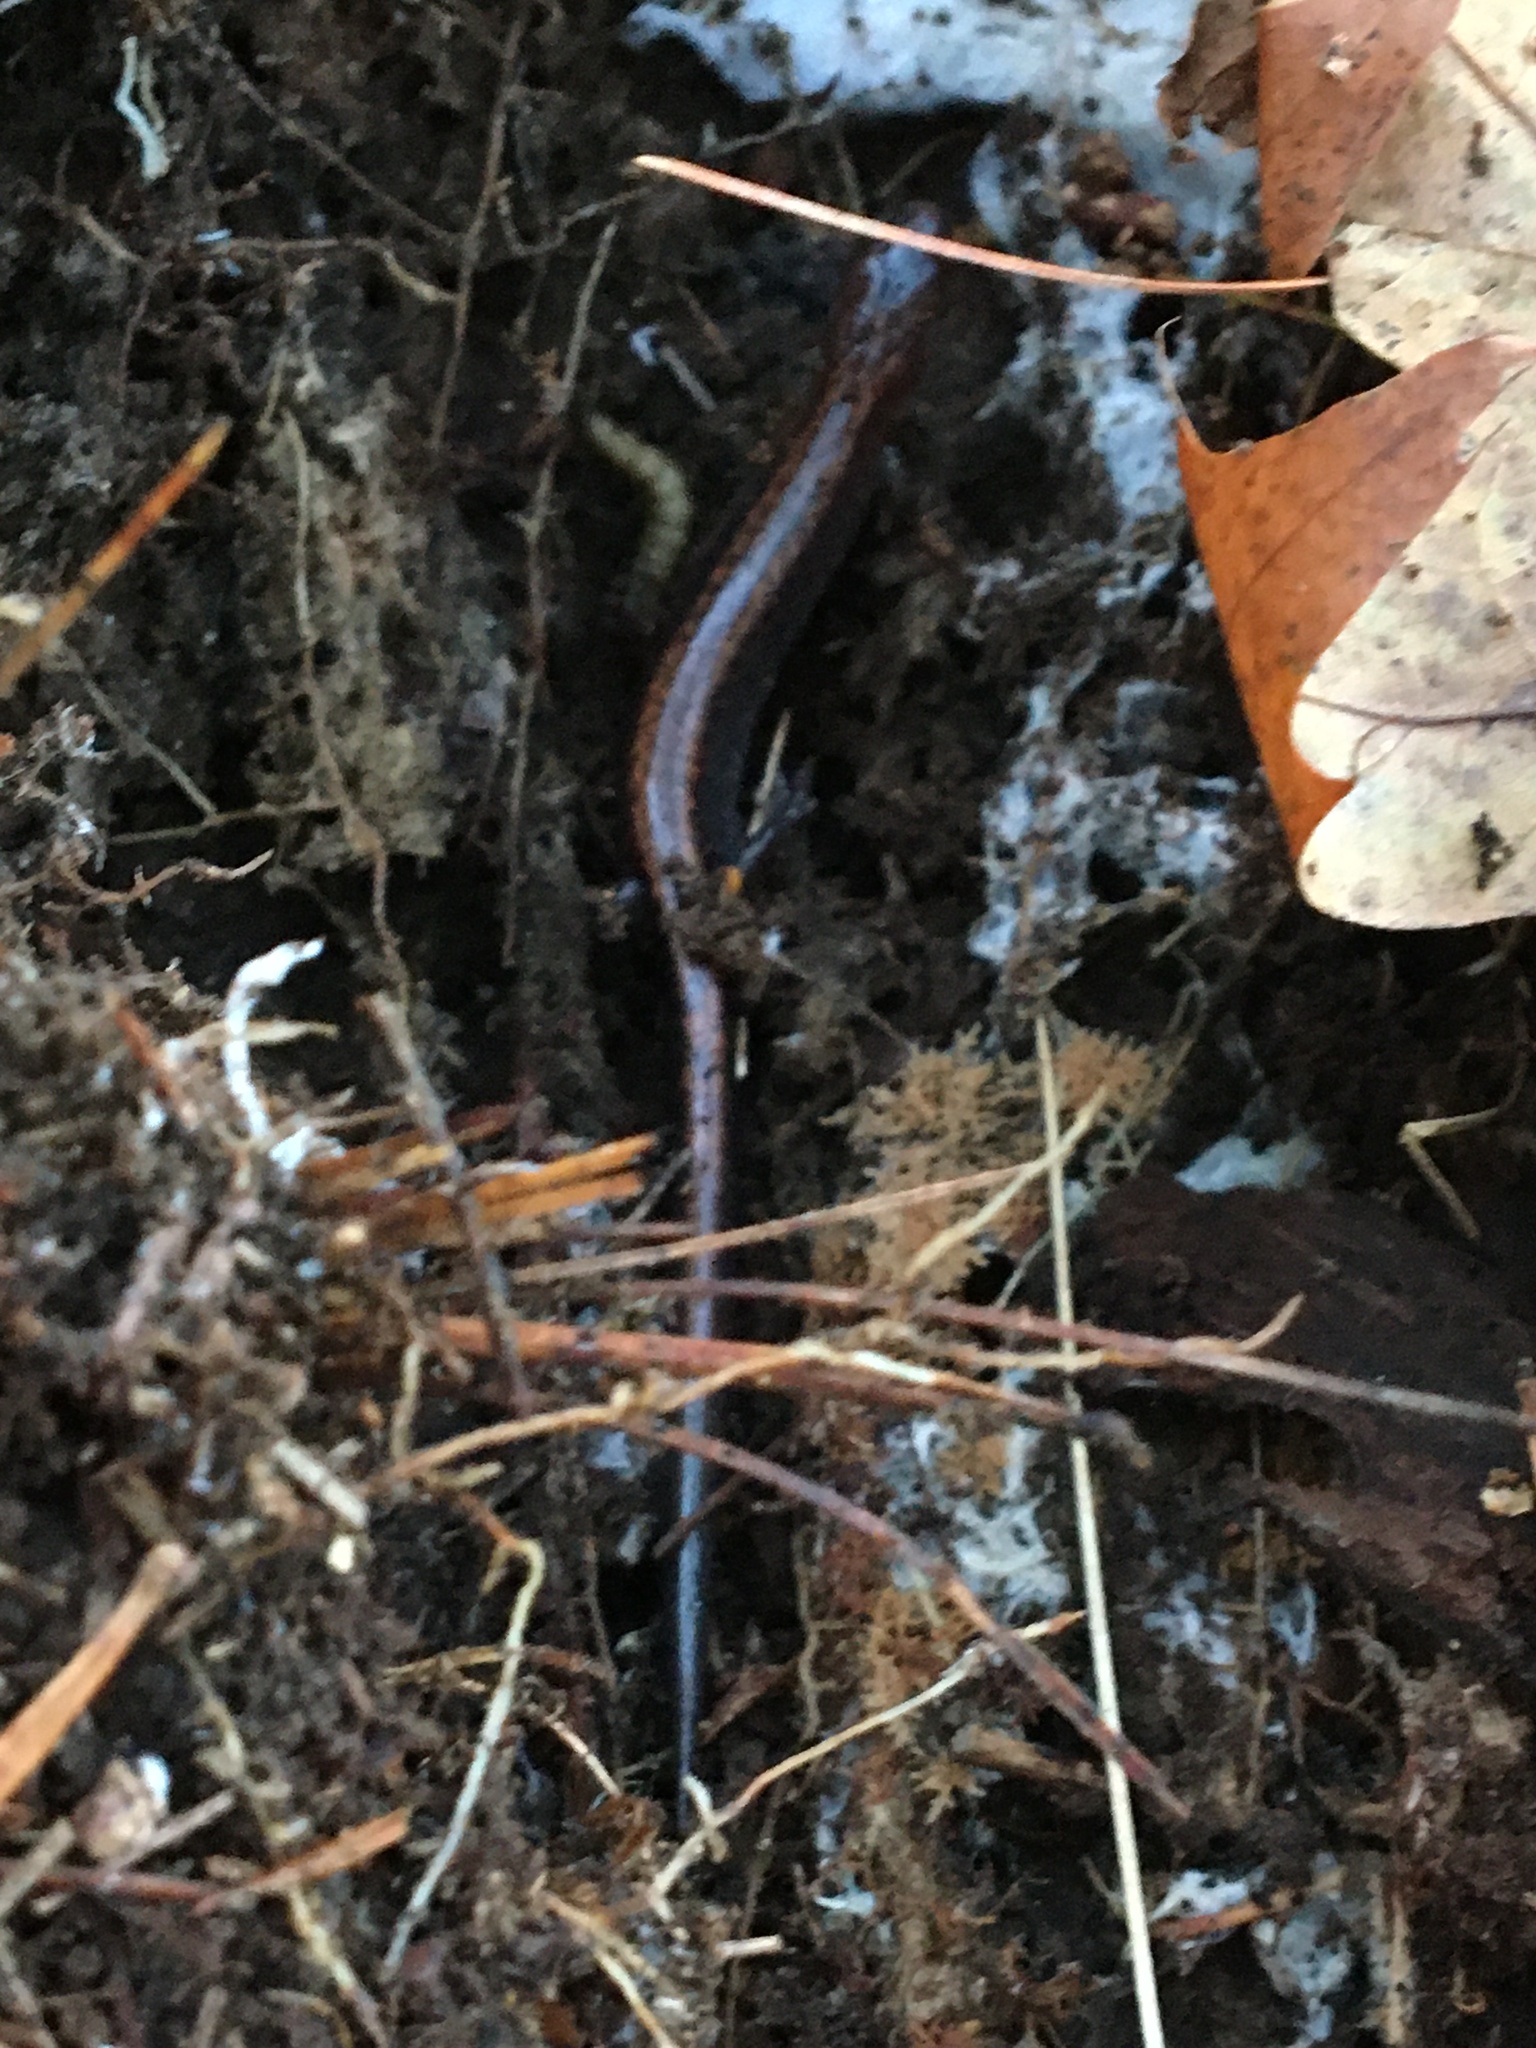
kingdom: Animalia
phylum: Chordata
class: Amphibia
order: Caudata
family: Plethodontidae
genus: Plethodon
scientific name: Plethodon cinereus
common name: Redback salamander
